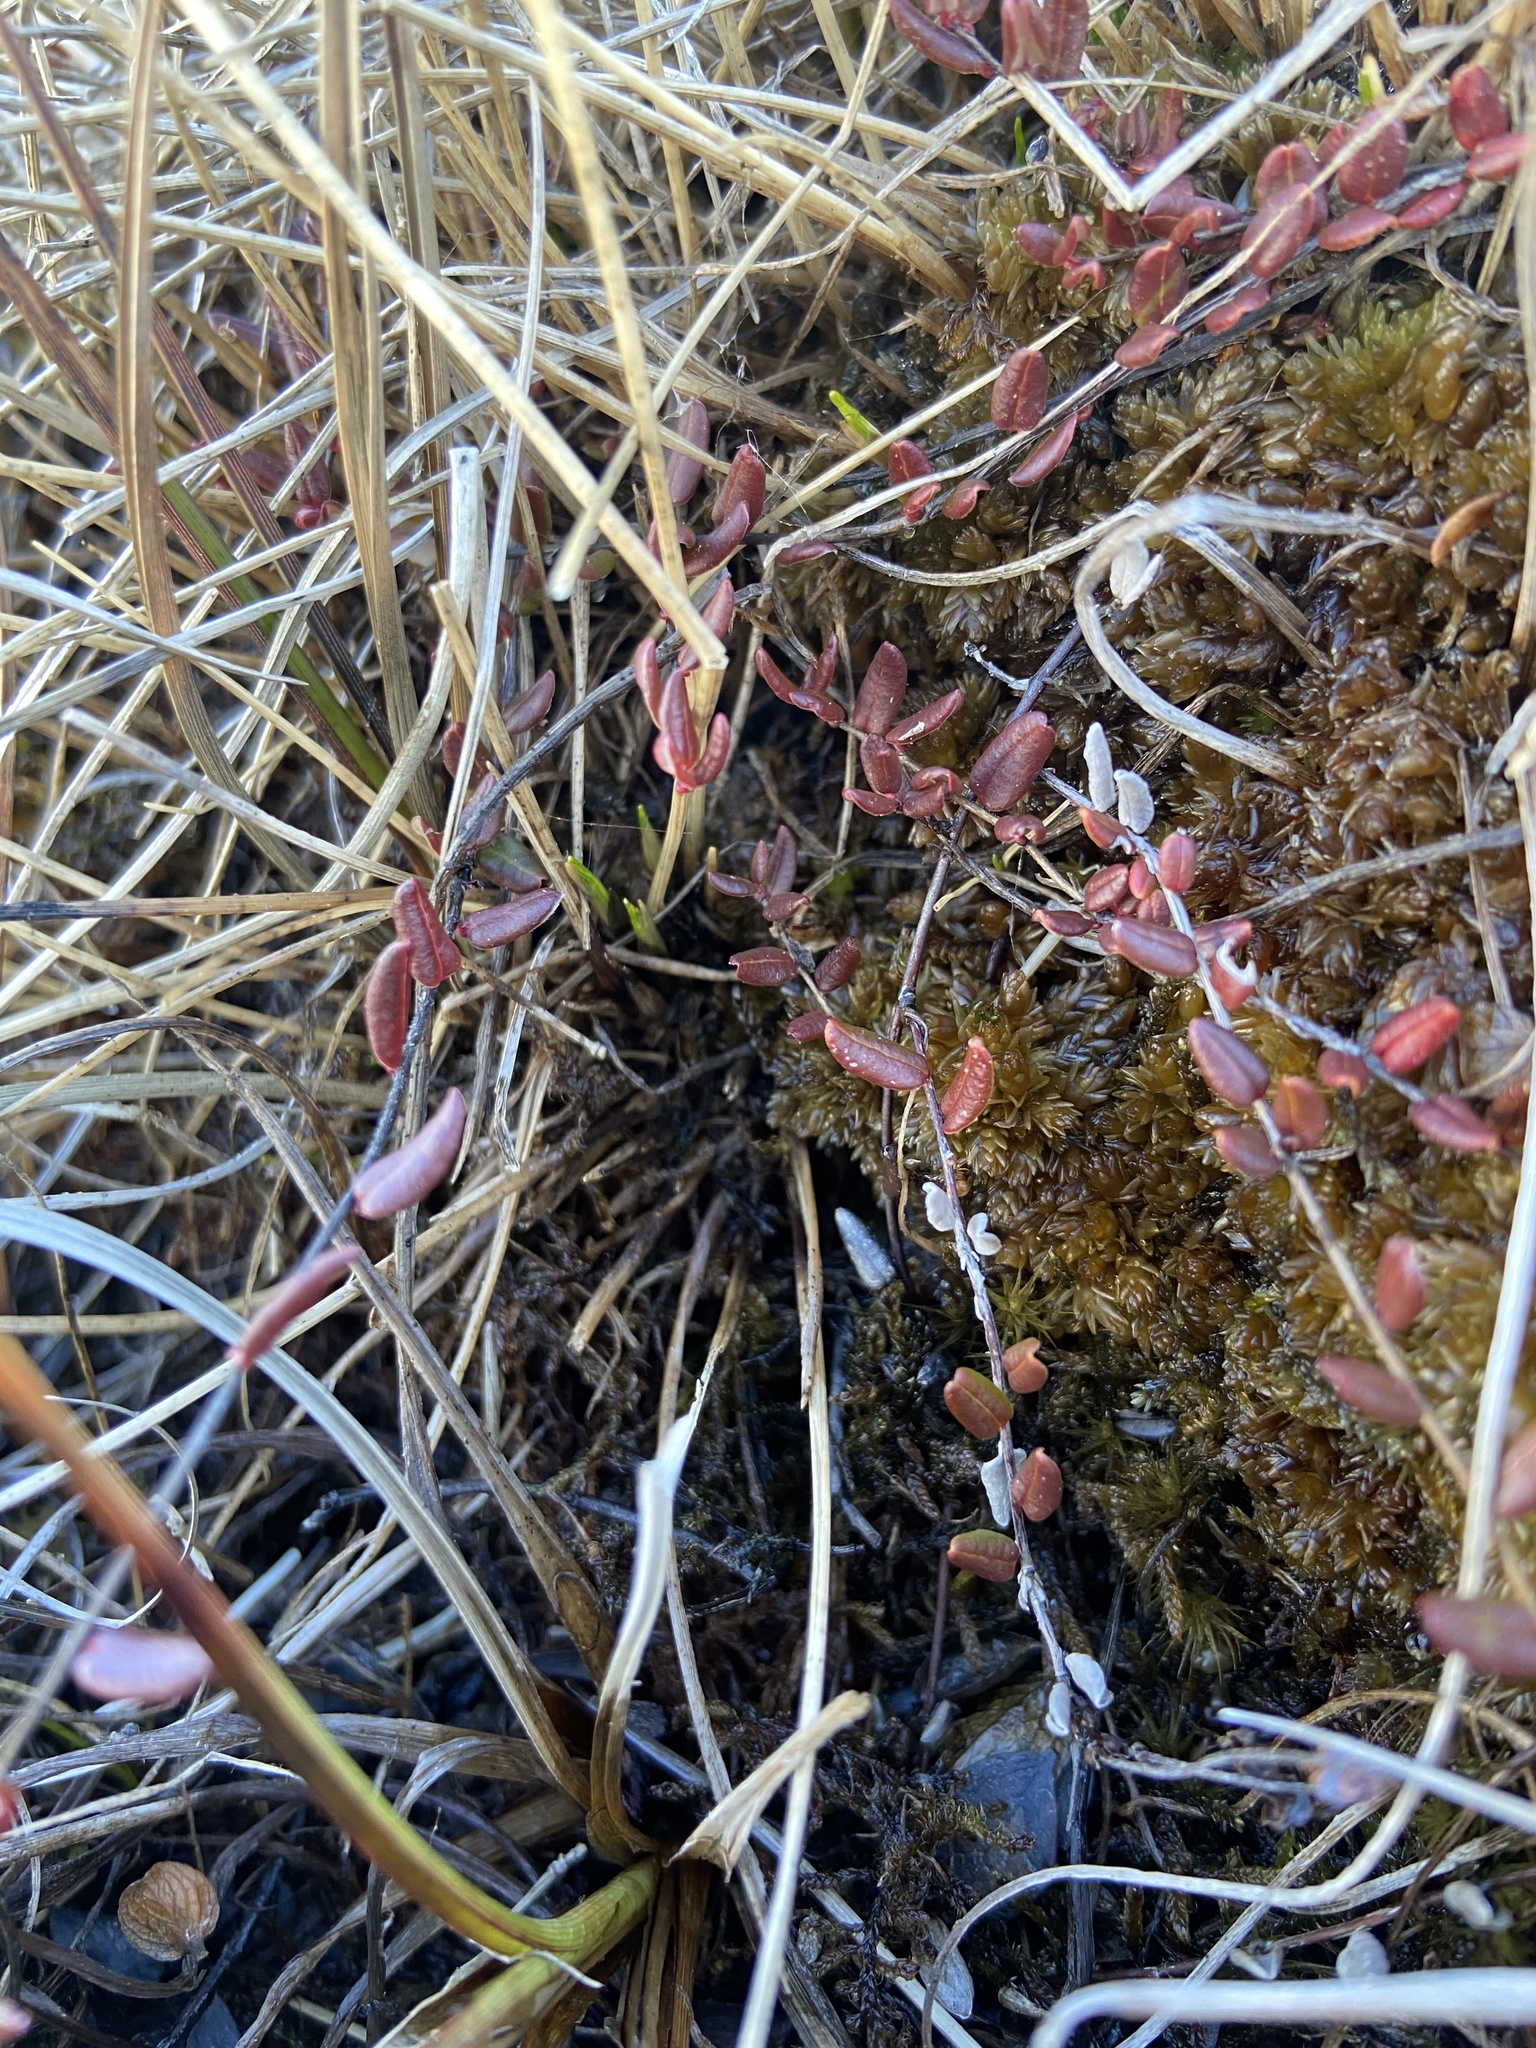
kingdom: Plantae
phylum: Tracheophyta
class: Magnoliopsida
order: Ericales
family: Ericaceae
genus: Vaccinium
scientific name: Vaccinium oxycoccos
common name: Cranberry
